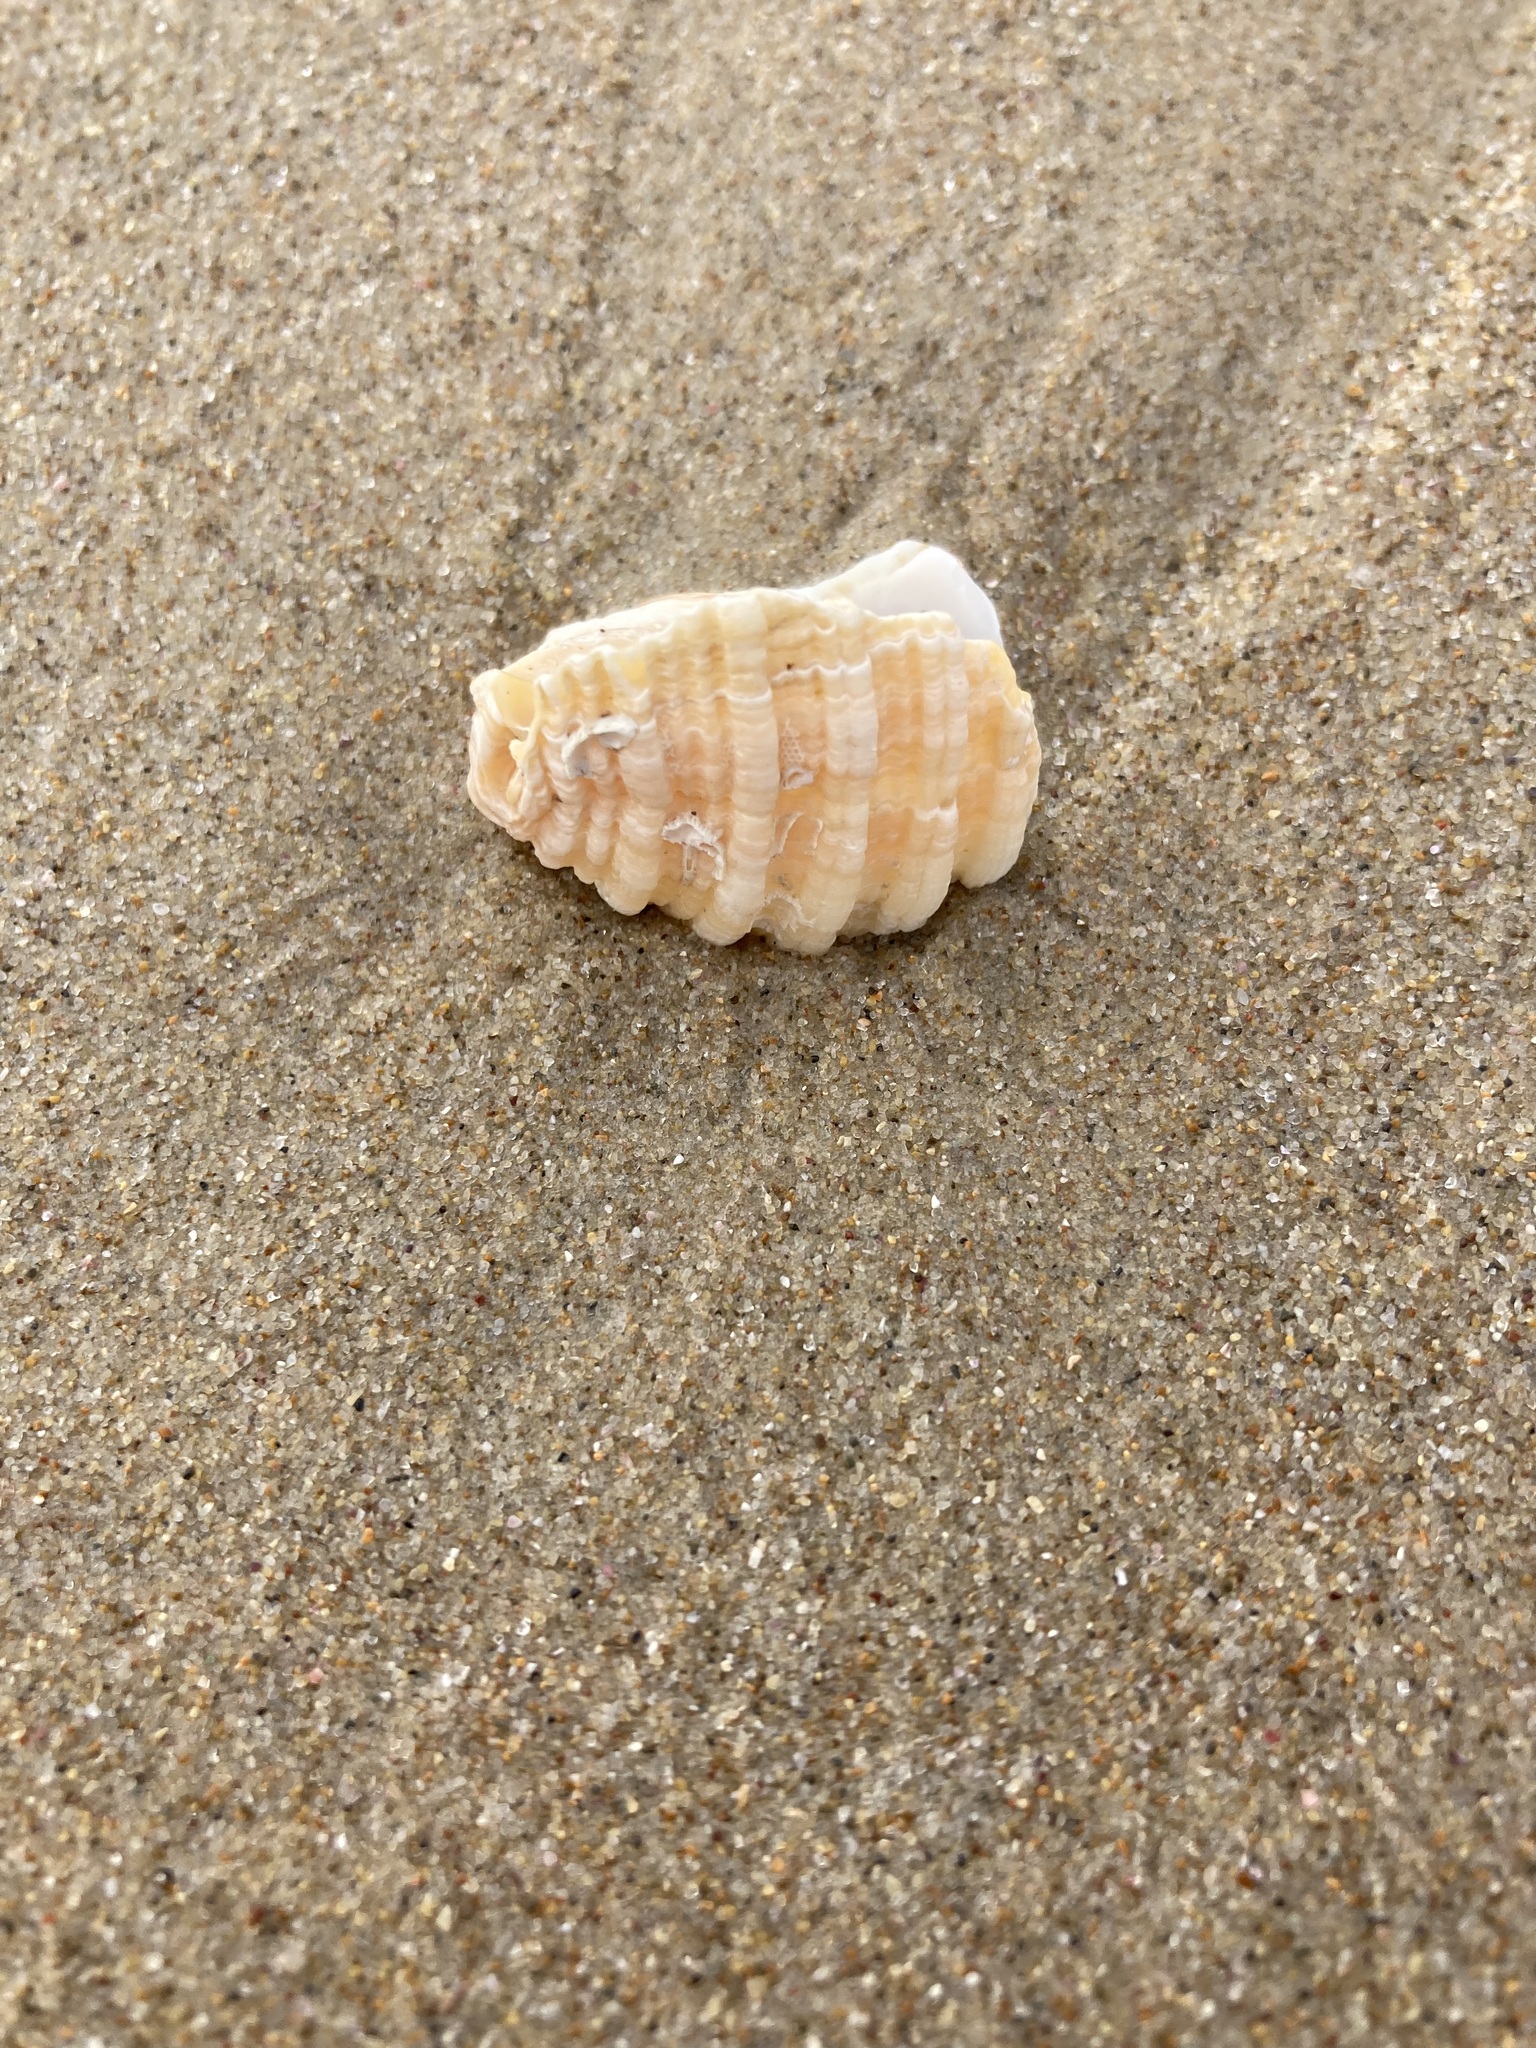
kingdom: Animalia
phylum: Mollusca
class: Gastropoda
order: Neogastropoda
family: Muricidae
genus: Dicathais
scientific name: Dicathais orbita
